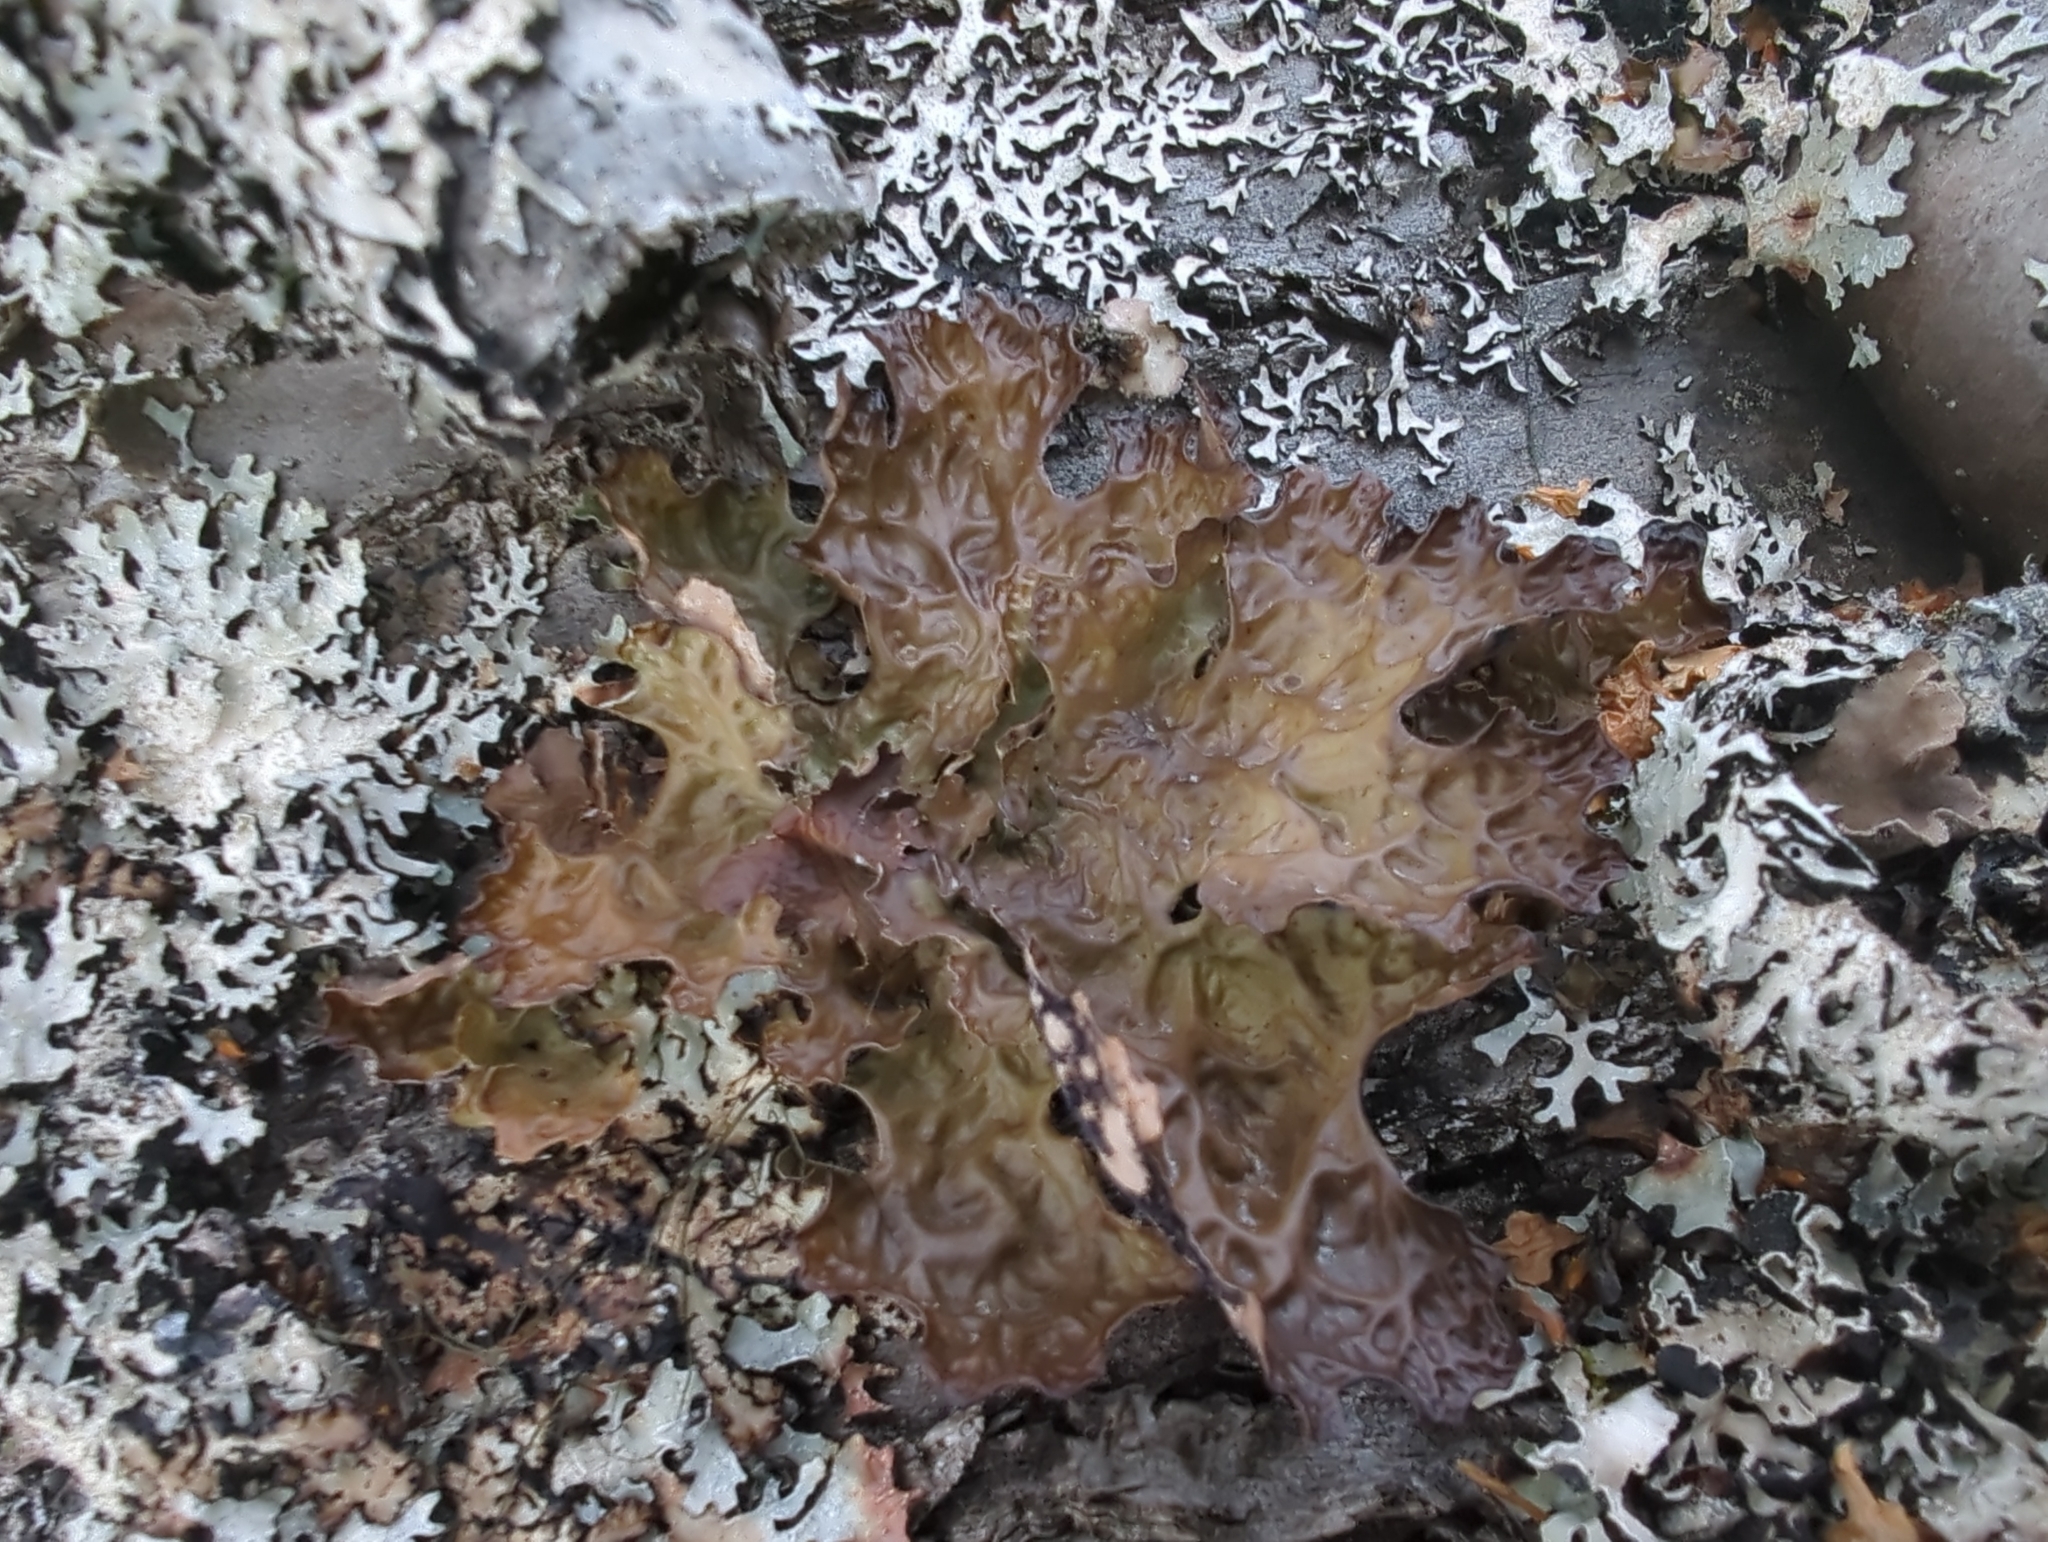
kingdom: Fungi
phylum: Ascomycota
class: Lecanoromycetes
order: Peltigerales
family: Lobariaceae
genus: Lobaria
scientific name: Lobaria pulmonaria
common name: Lungwort
